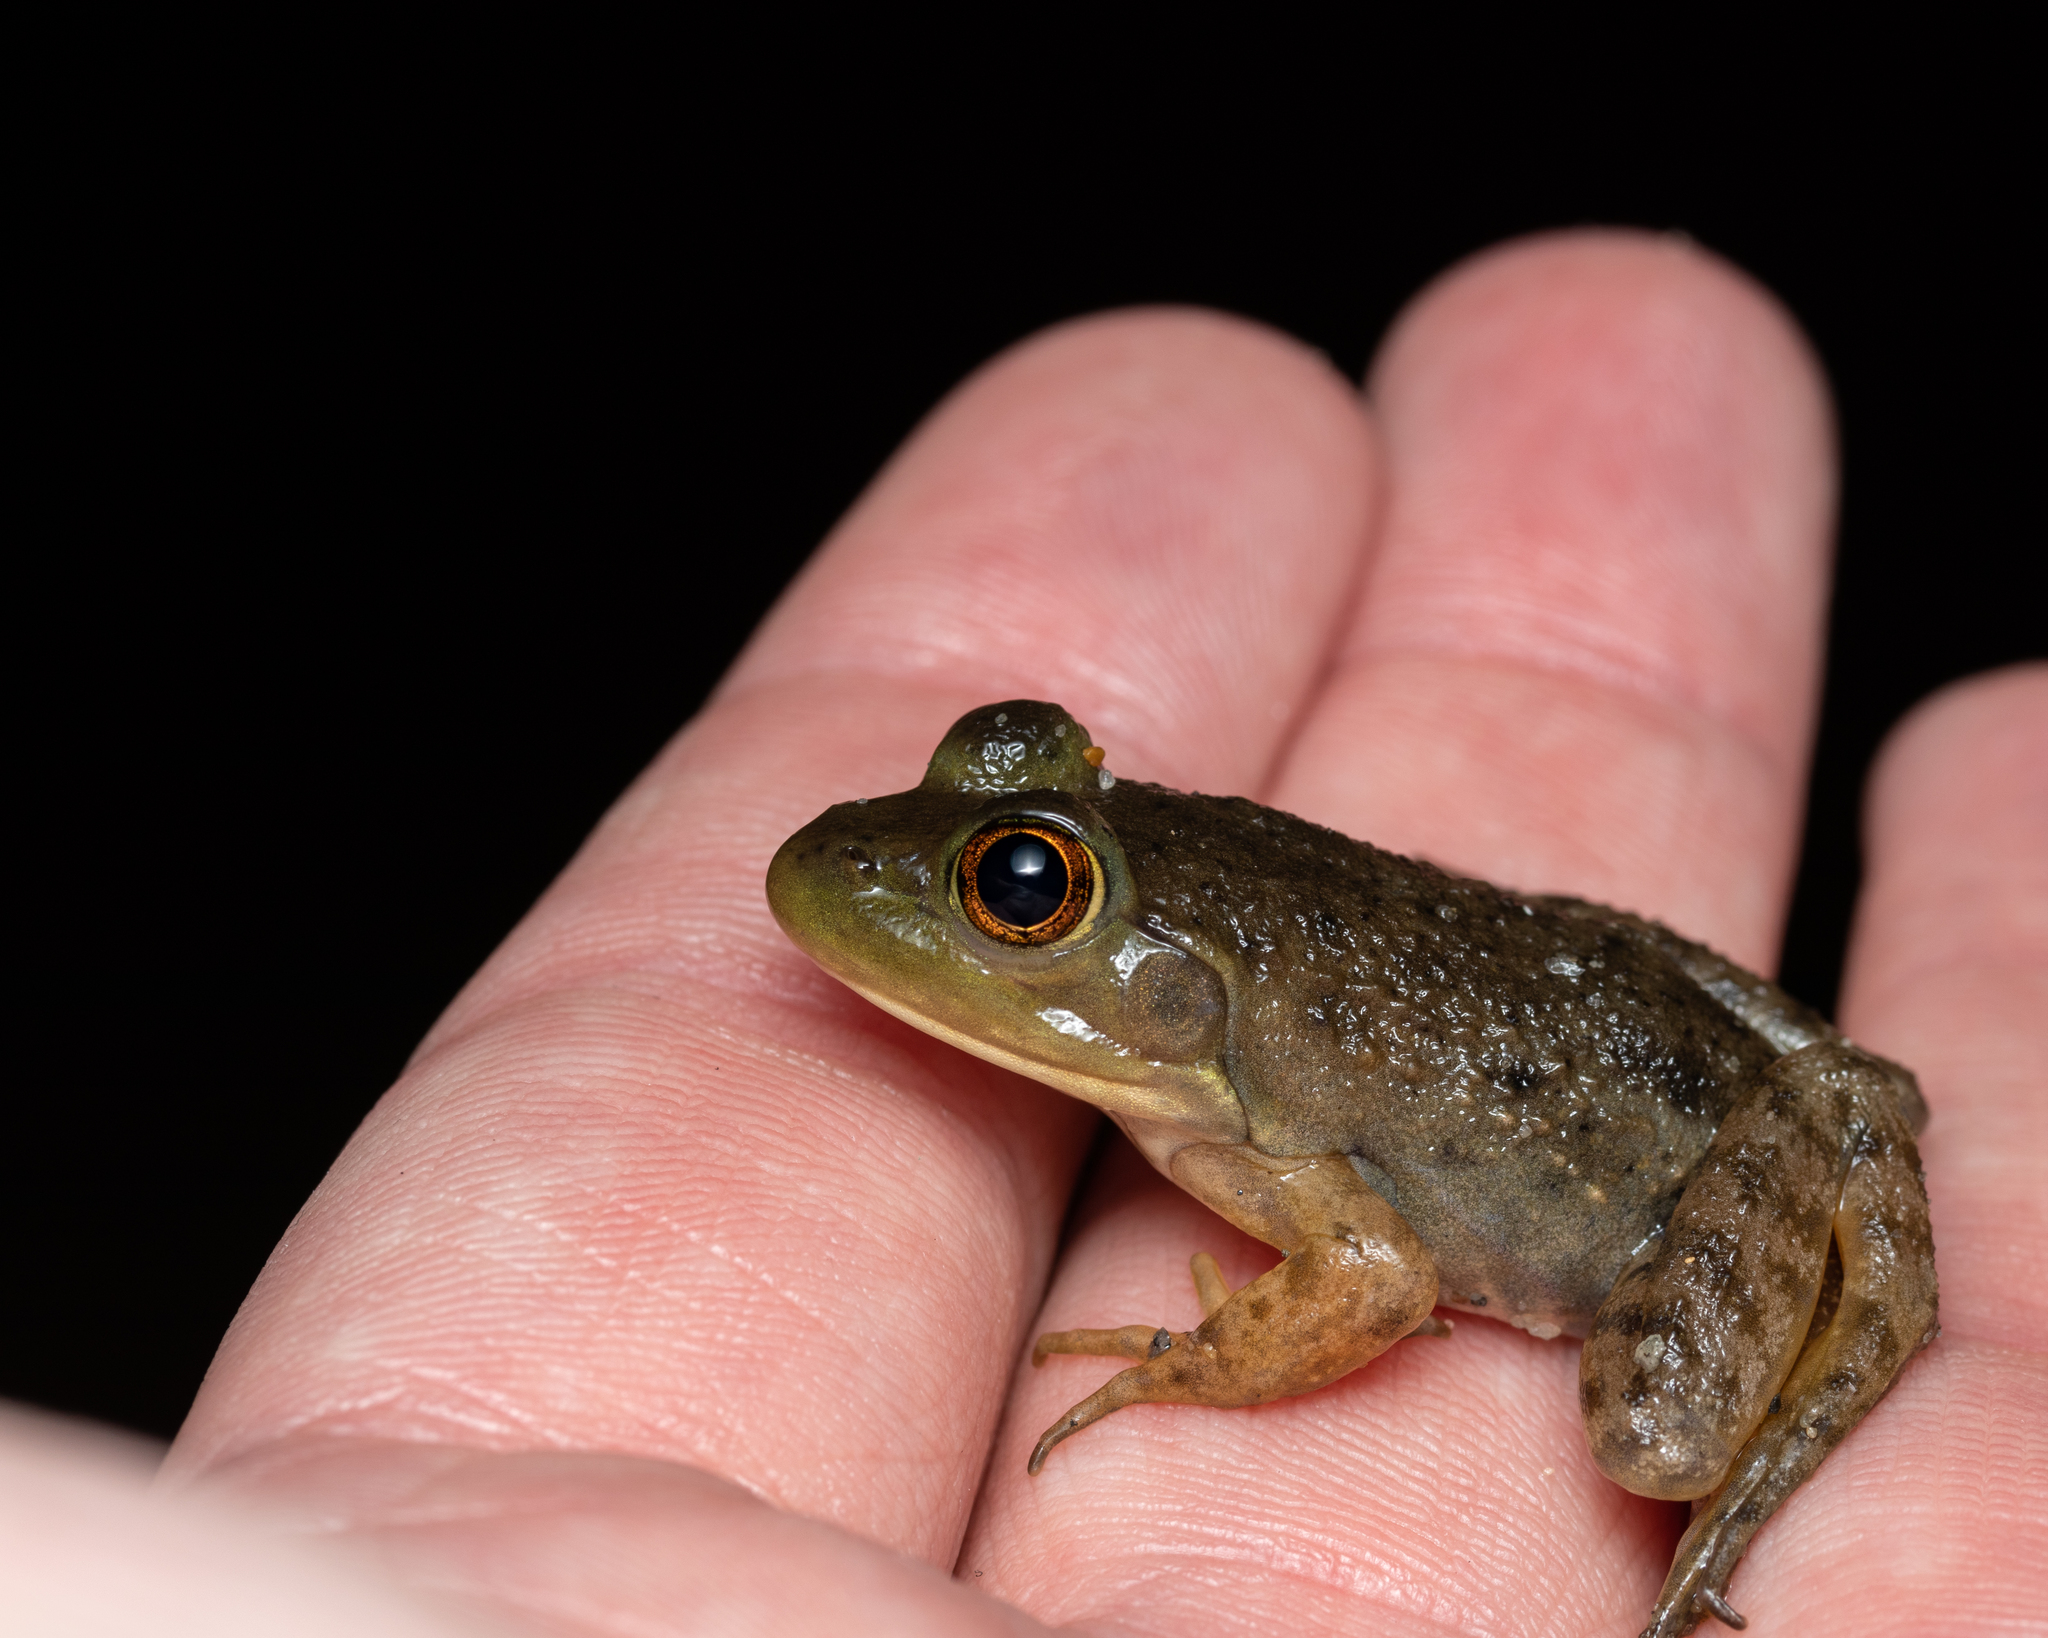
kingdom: Animalia
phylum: Chordata
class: Amphibia
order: Anura
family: Ranidae
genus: Lithobates
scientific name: Lithobates catesbeianus
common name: American bullfrog
